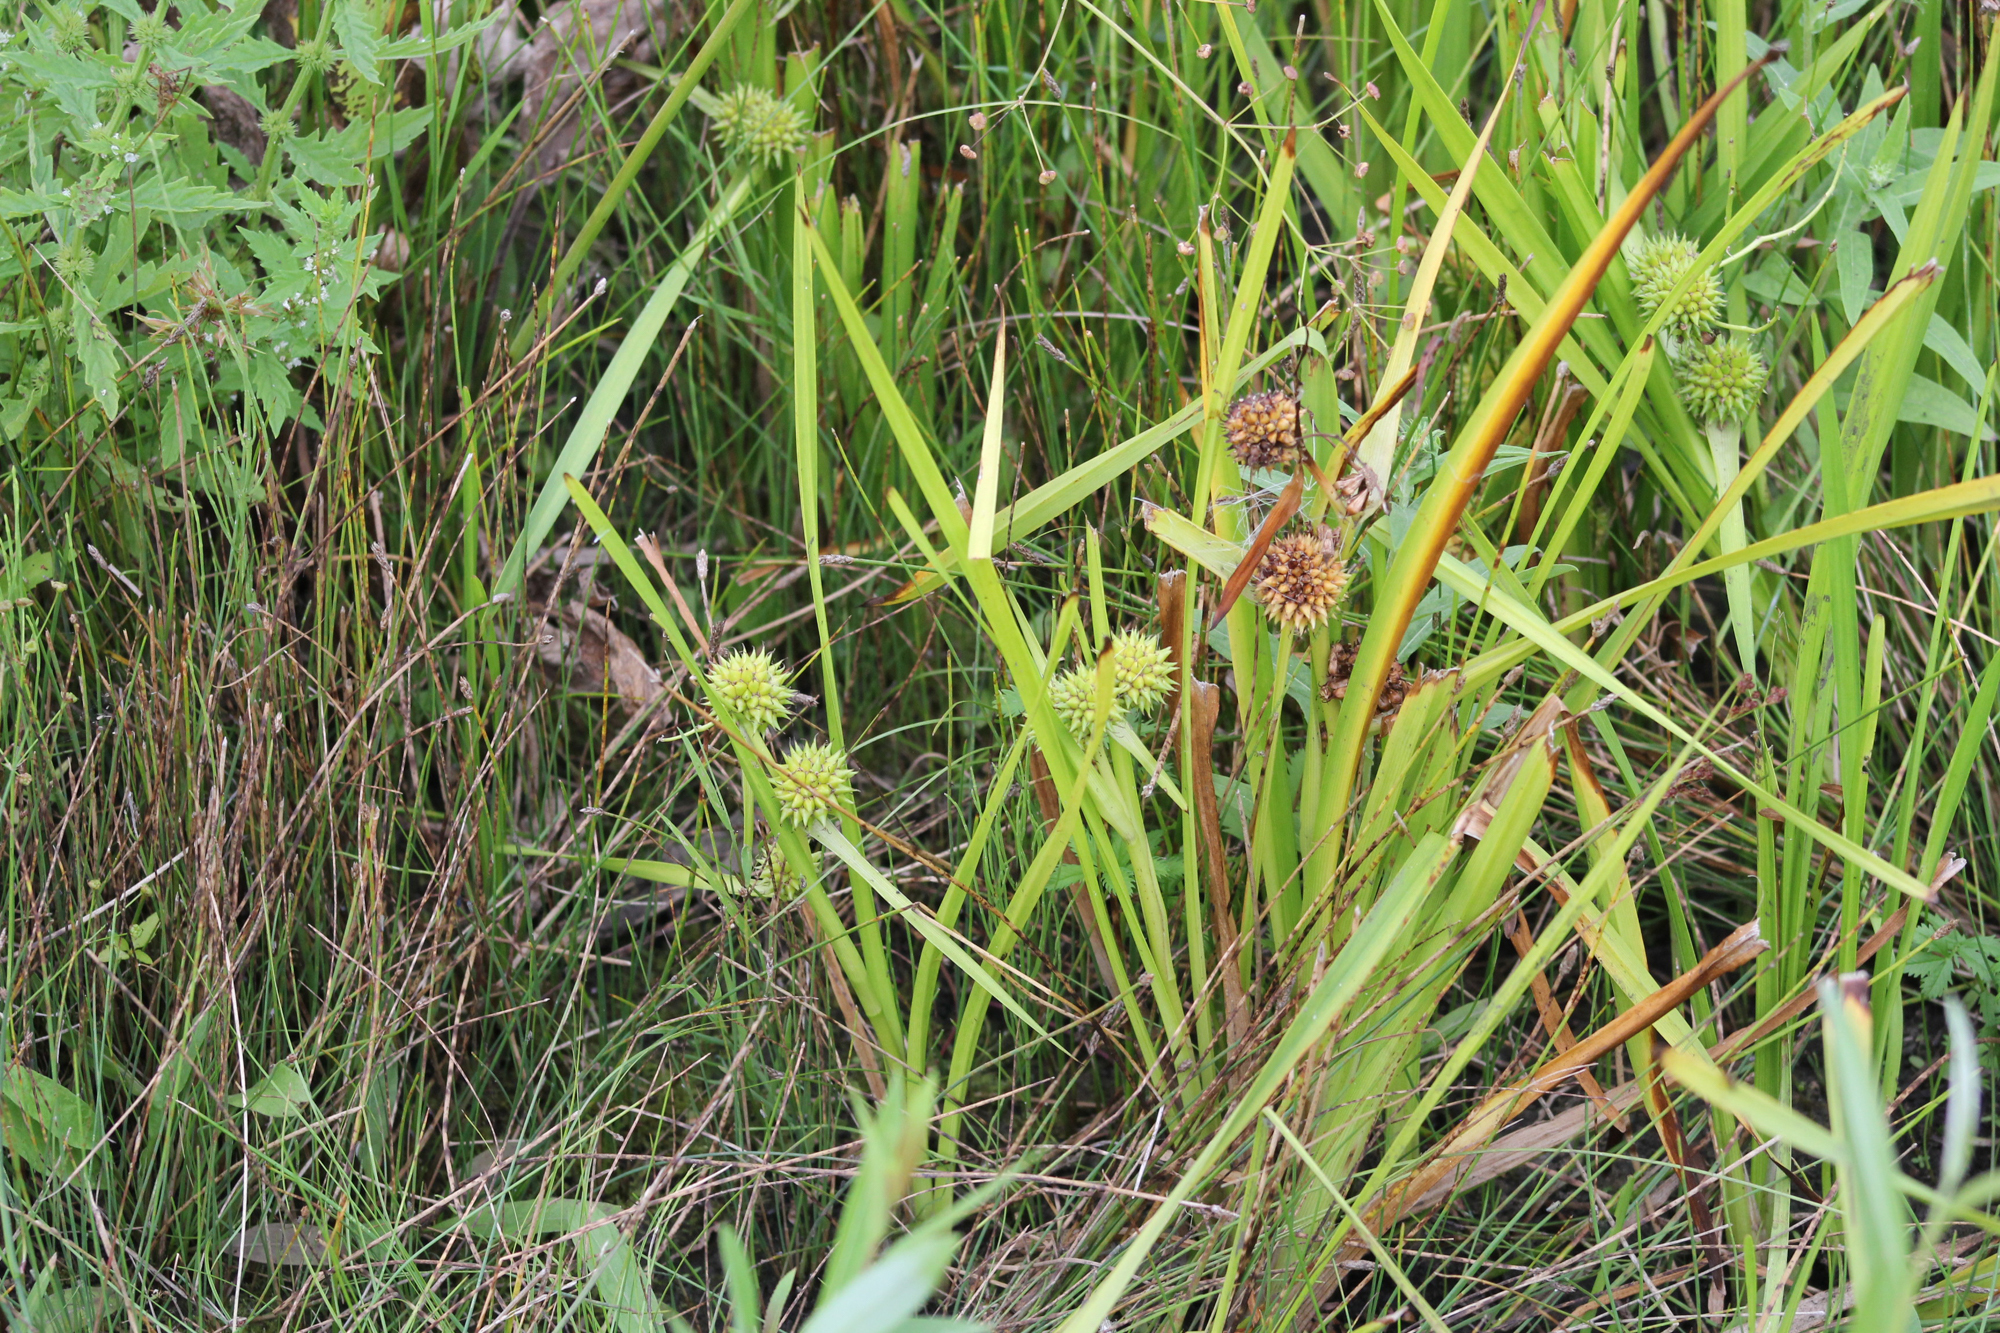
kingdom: Plantae
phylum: Tracheophyta
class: Liliopsida
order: Poales
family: Typhaceae
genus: Sparganium
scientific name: Sparganium erectum
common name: Branched bur-reed
